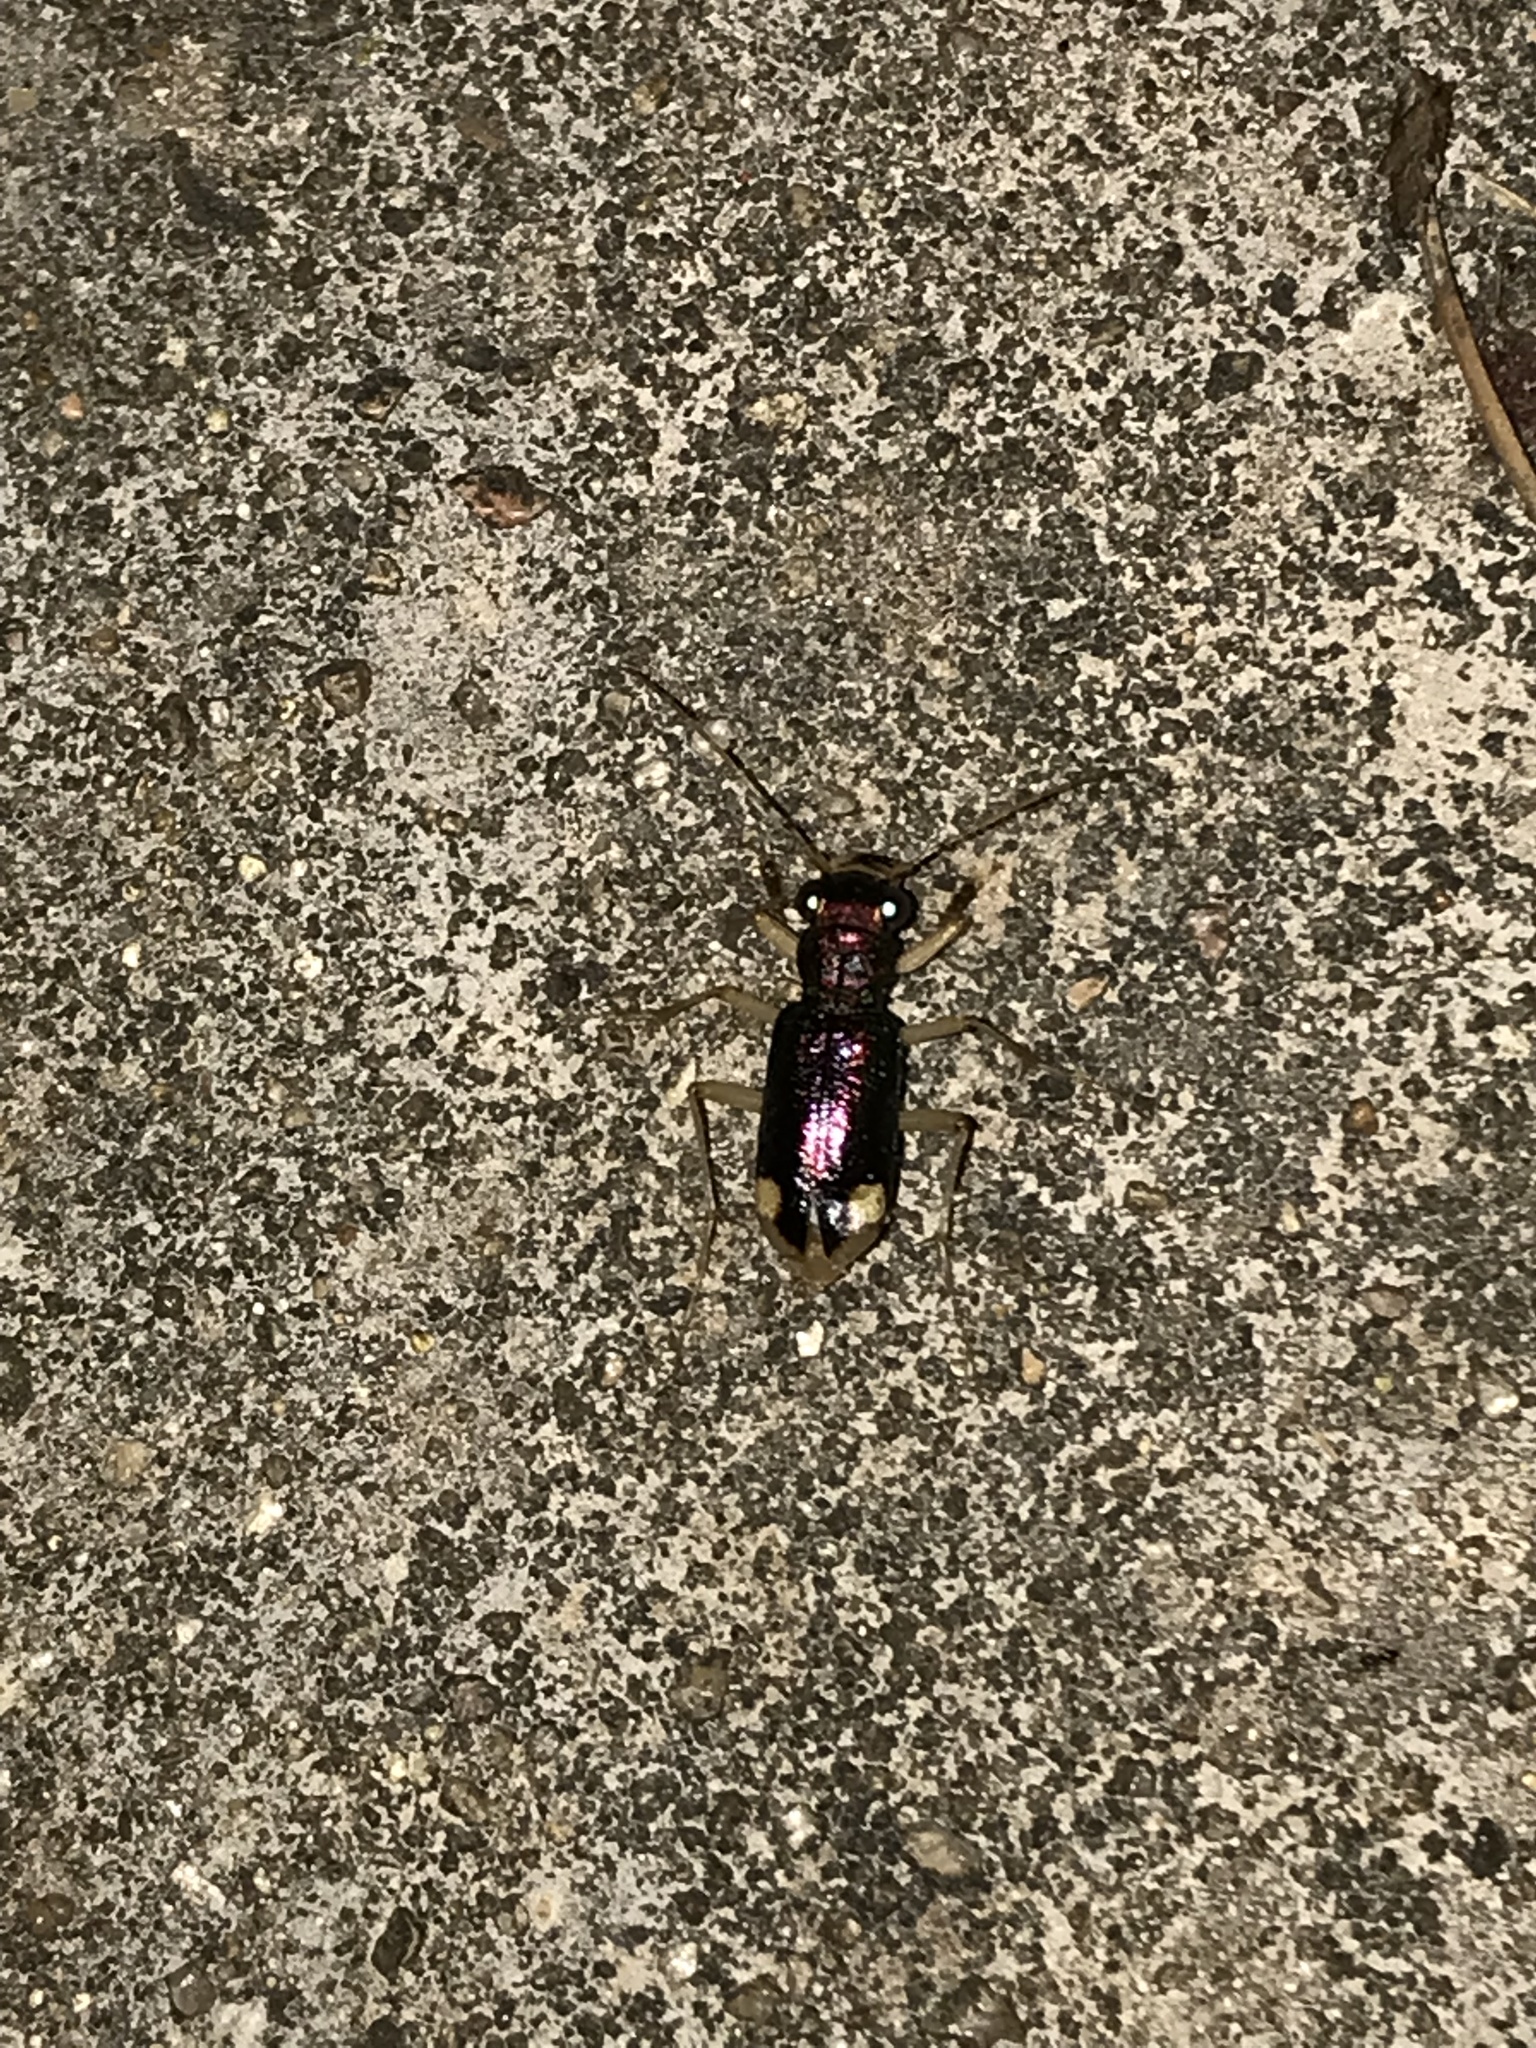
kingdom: Animalia
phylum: Arthropoda
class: Insecta
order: Coleoptera
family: Carabidae
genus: Tetracha
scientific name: Tetracha carolina
